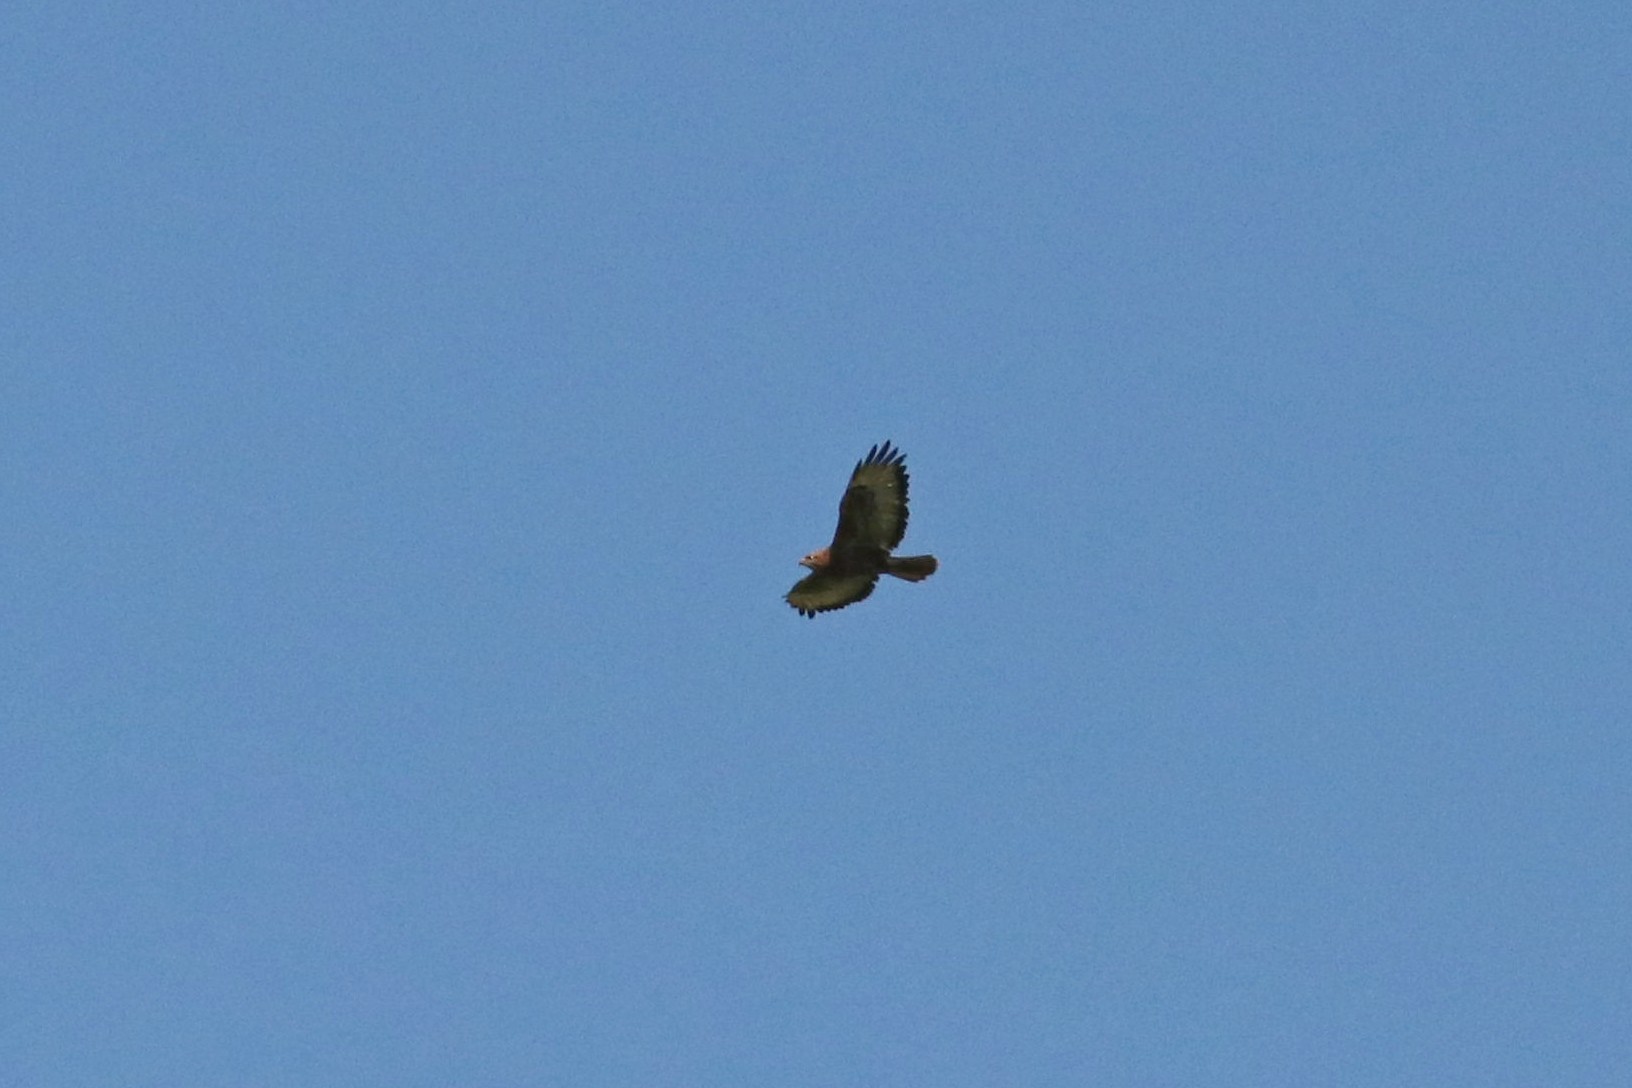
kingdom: Animalia
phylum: Chordata
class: Aves
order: Accipitriformes
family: Accipitridae
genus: Buteo
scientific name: Buteo buteo
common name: Common buzzard
